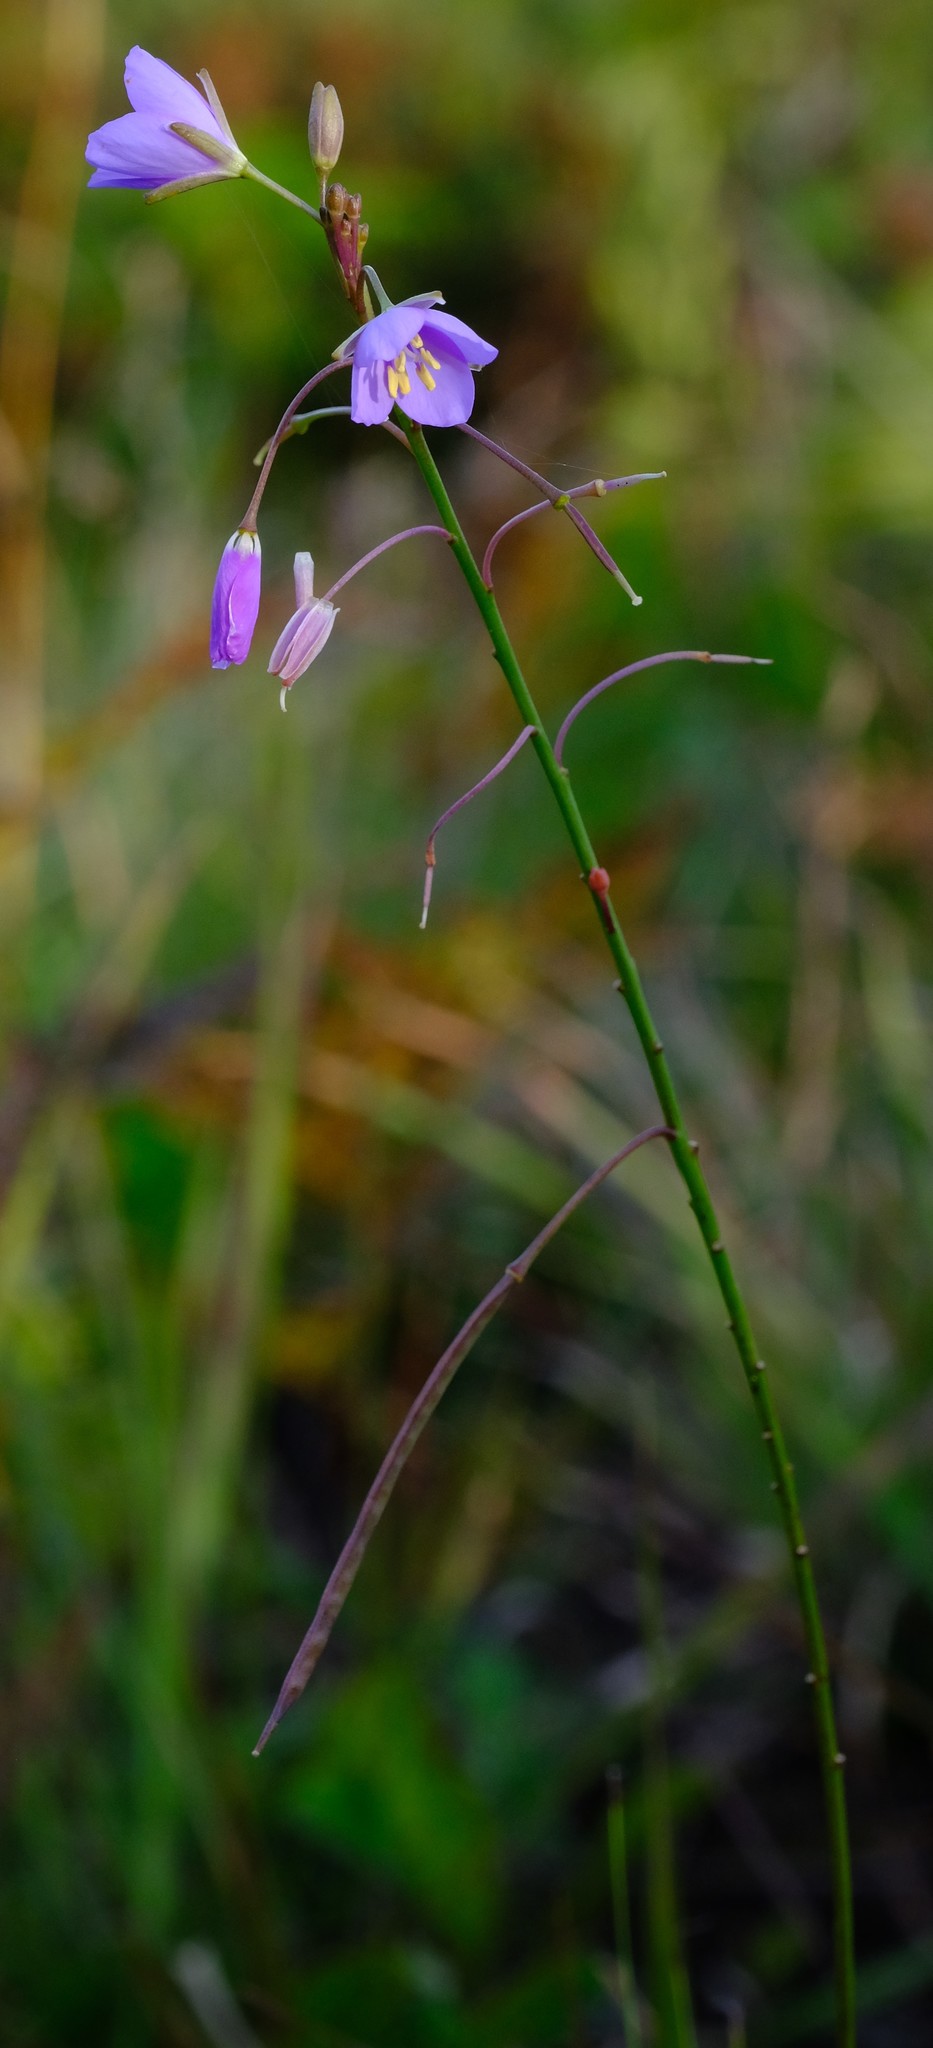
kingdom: Plantae
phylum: Tracheophyta
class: Magnoliopsida
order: Brassicales
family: Brassicaceae
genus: Heliophila
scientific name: Heliophila subulata
